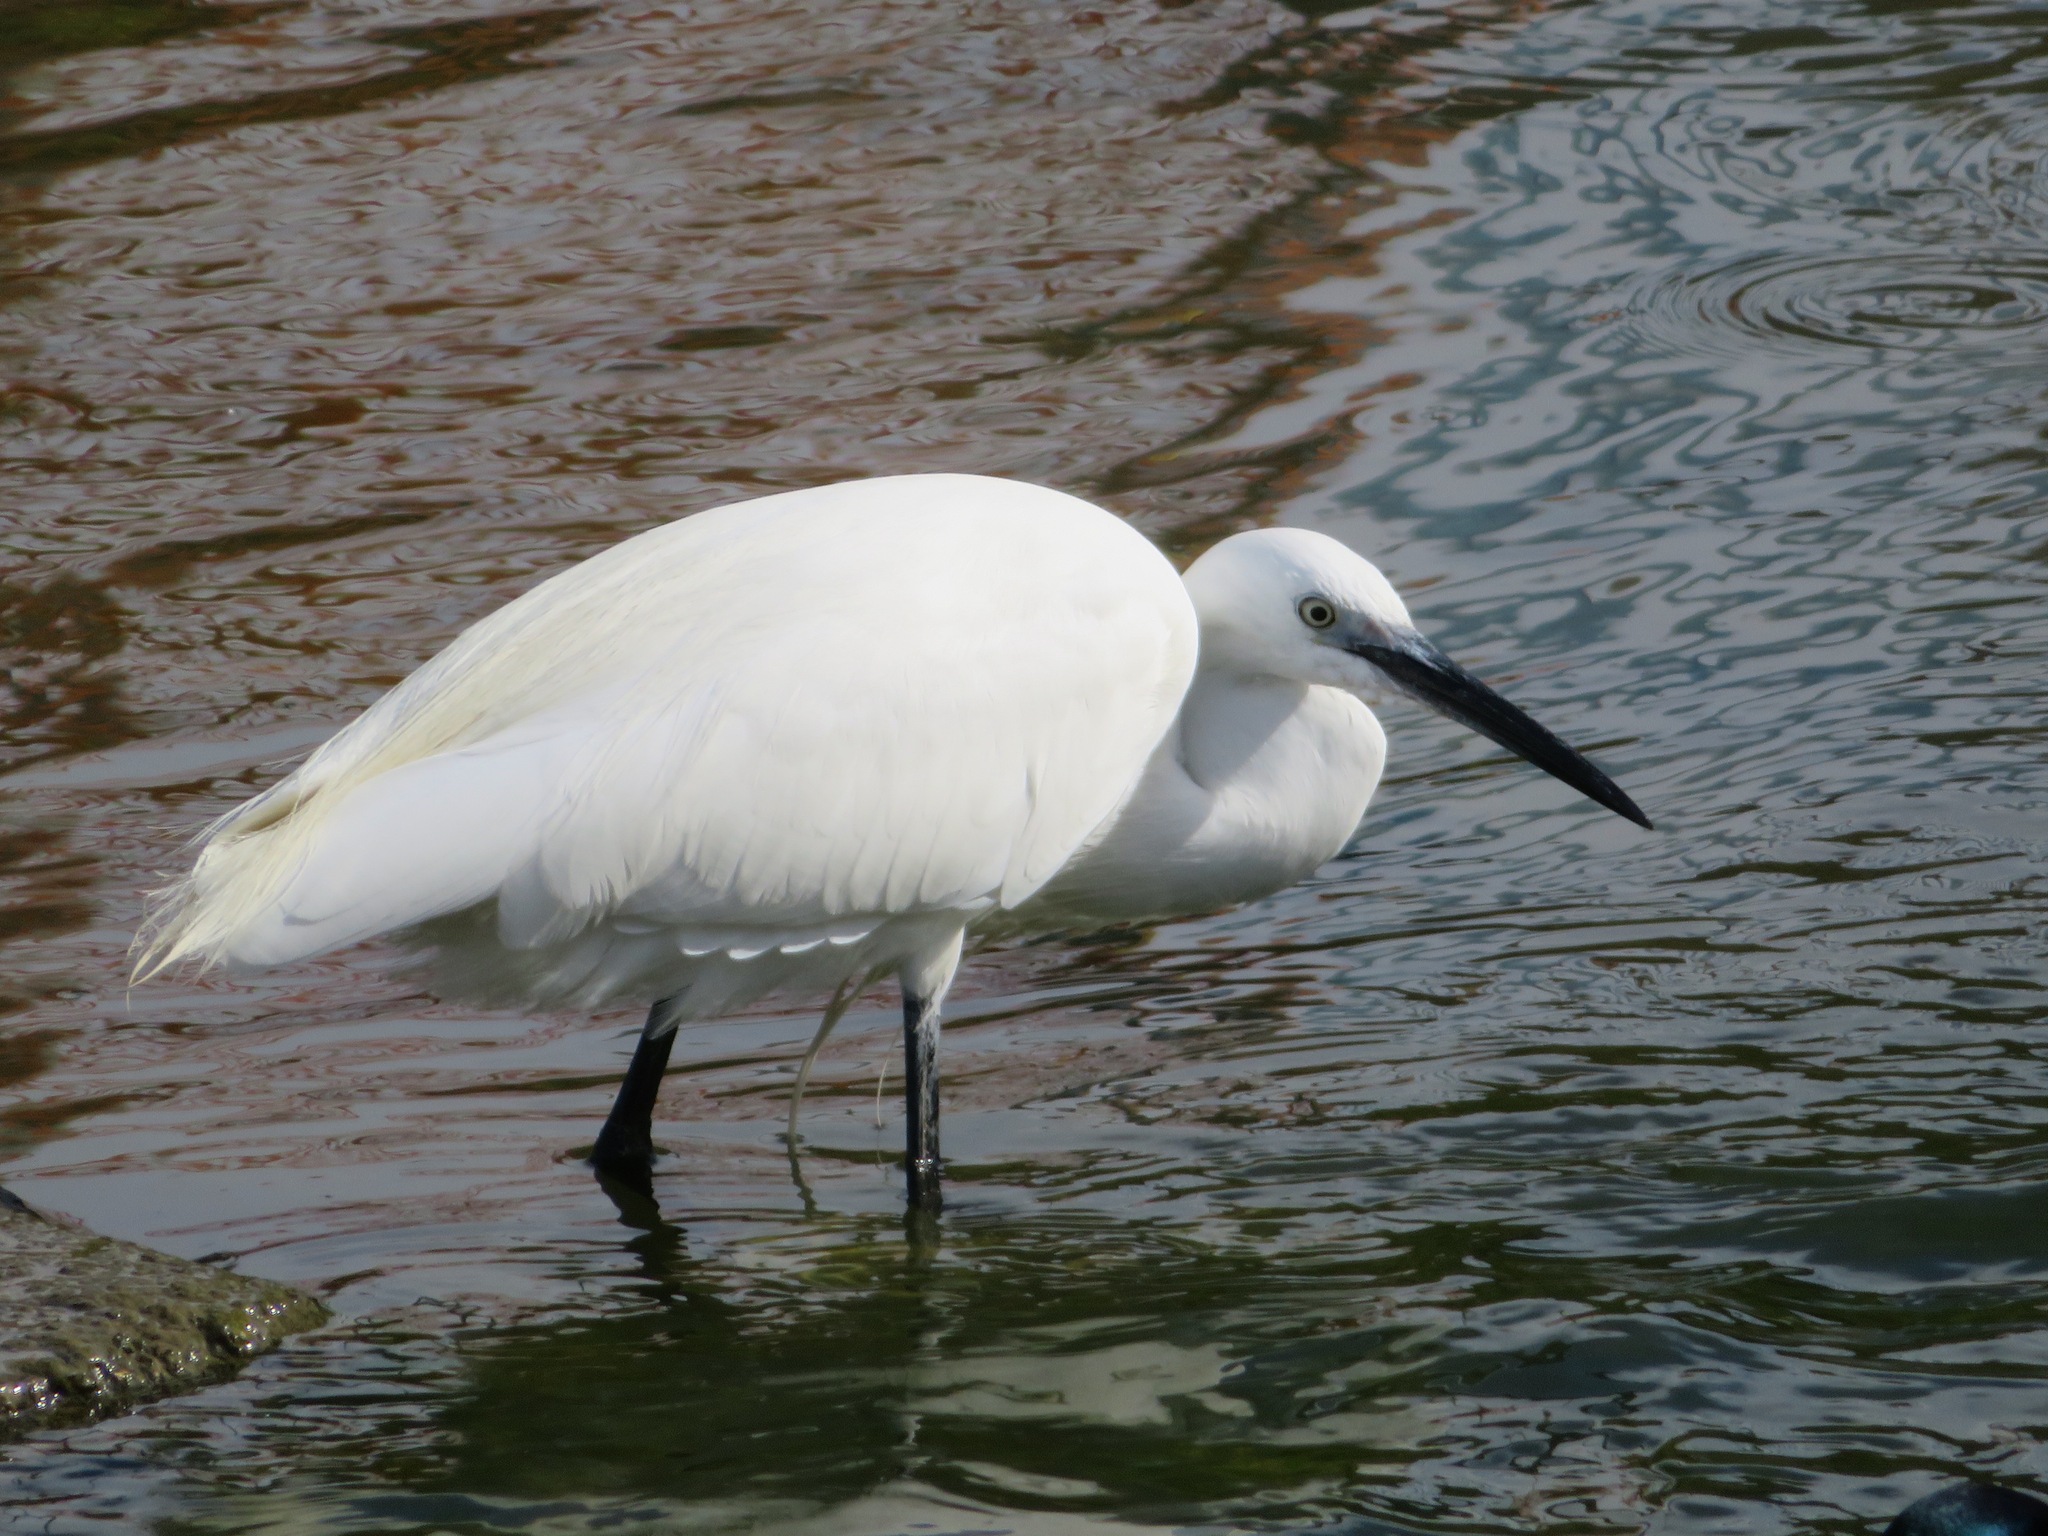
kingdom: Animalia
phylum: Chordata
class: Aves
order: Pelecaniformes
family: Ardeidae
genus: Egretta
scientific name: Egretta garzetta
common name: Little egret
